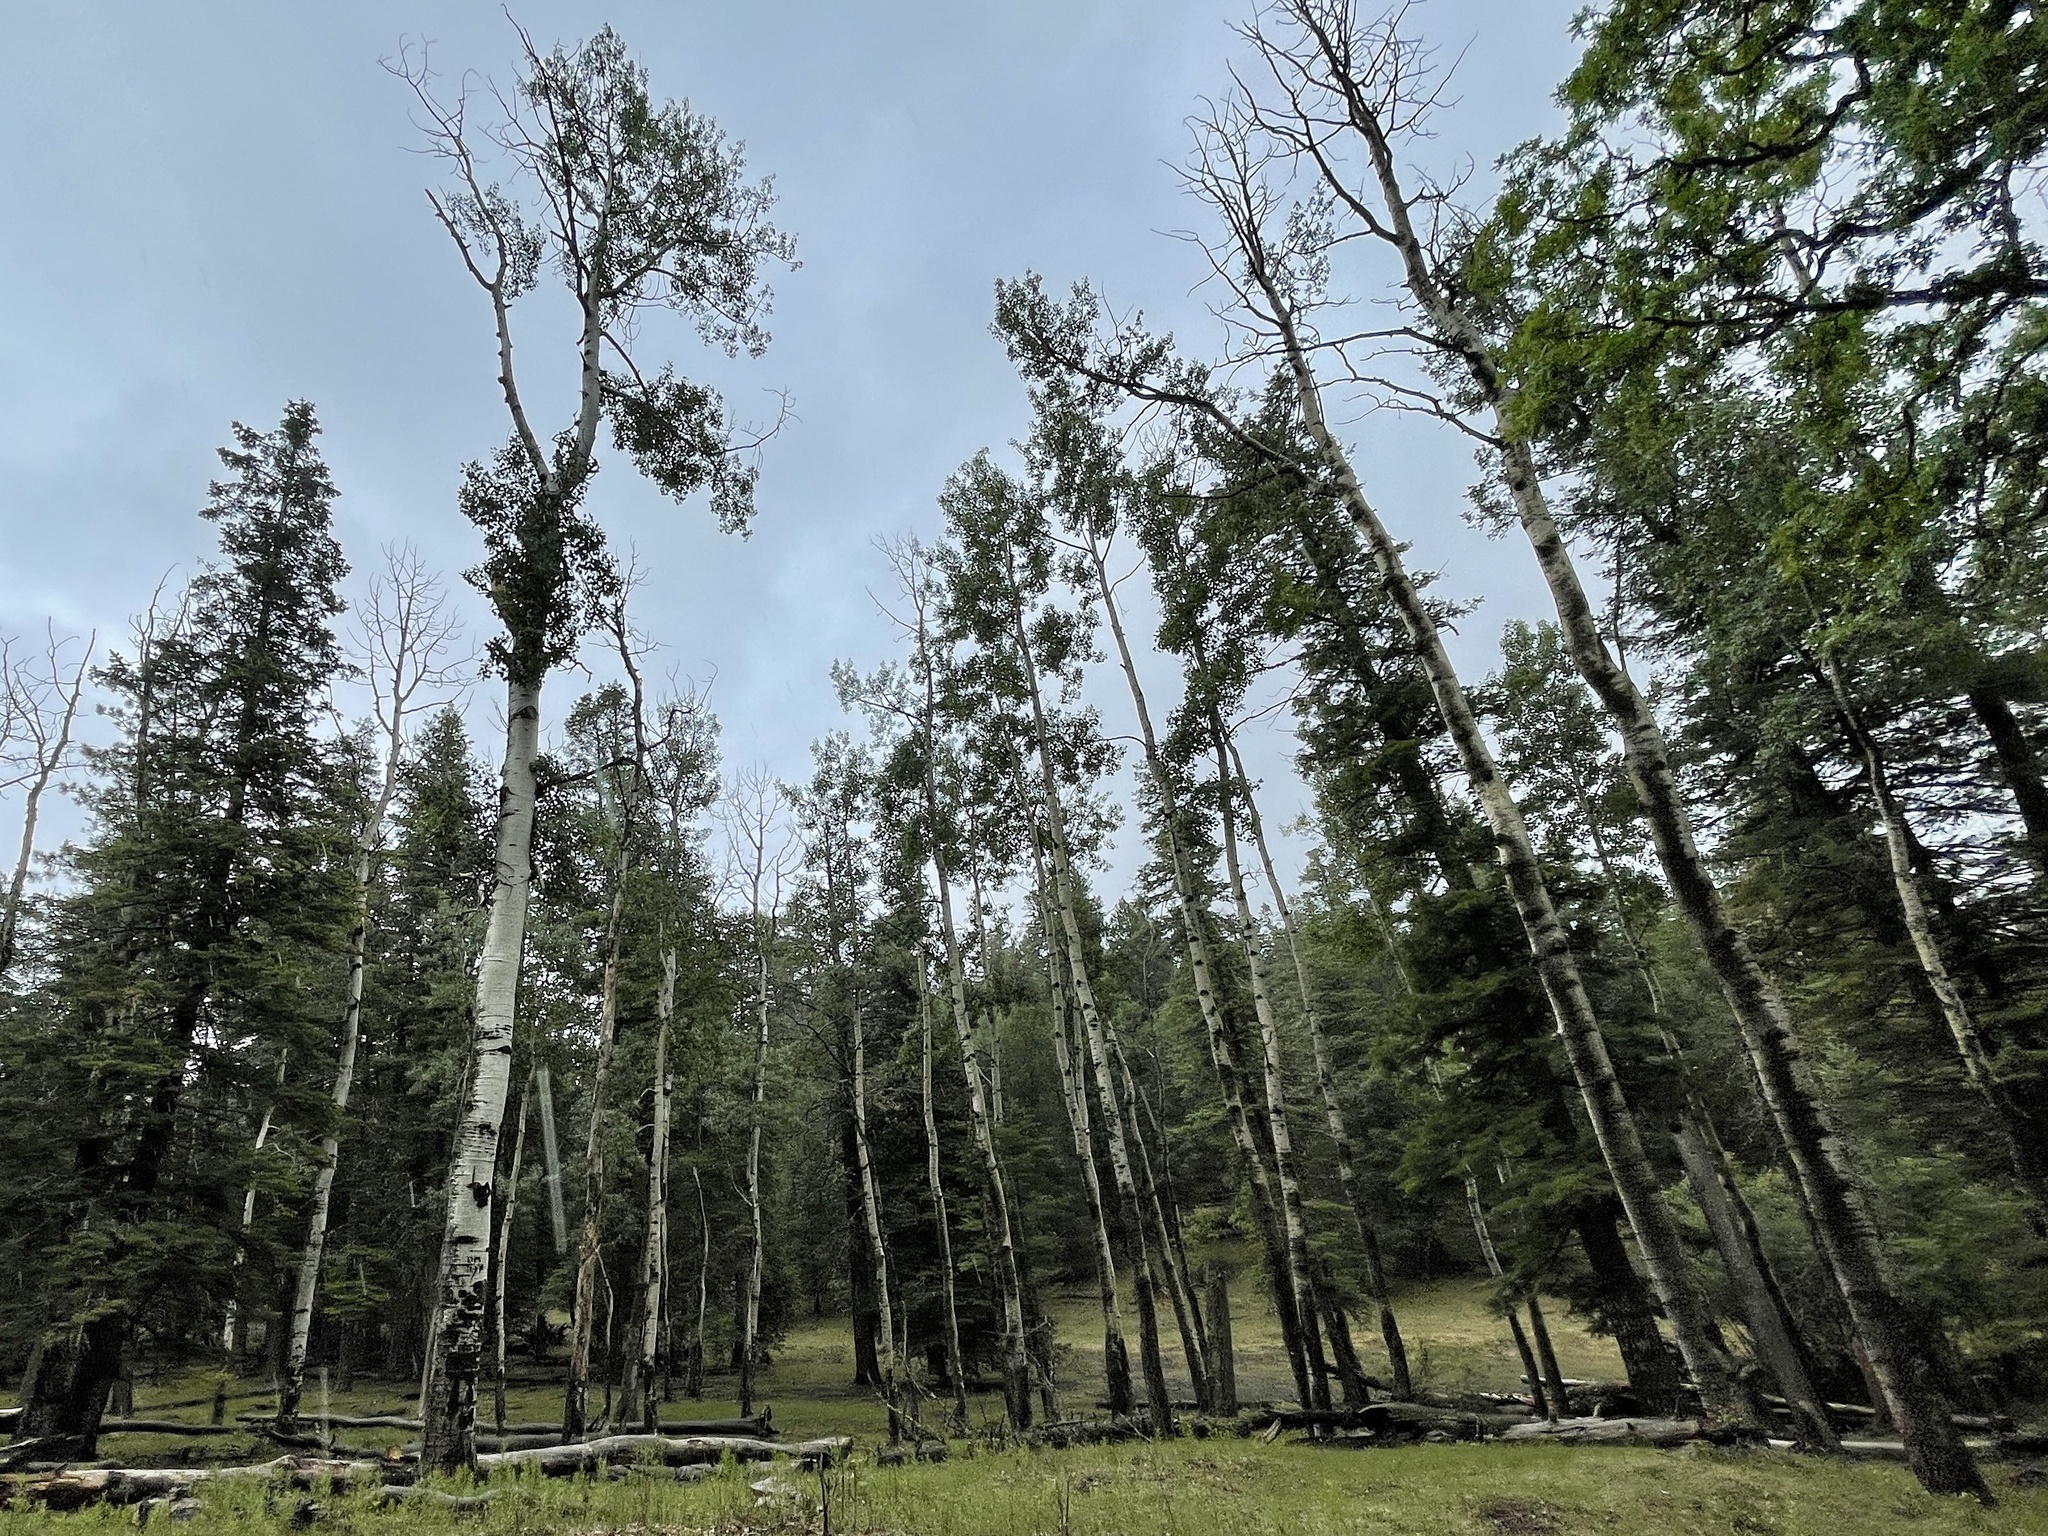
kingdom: Plantae
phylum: Tracheophyta
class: Magnoliopsida
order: Malpighiales
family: Salicaceae
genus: Populus
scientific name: Populus tremuloides
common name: Quaking aspen
